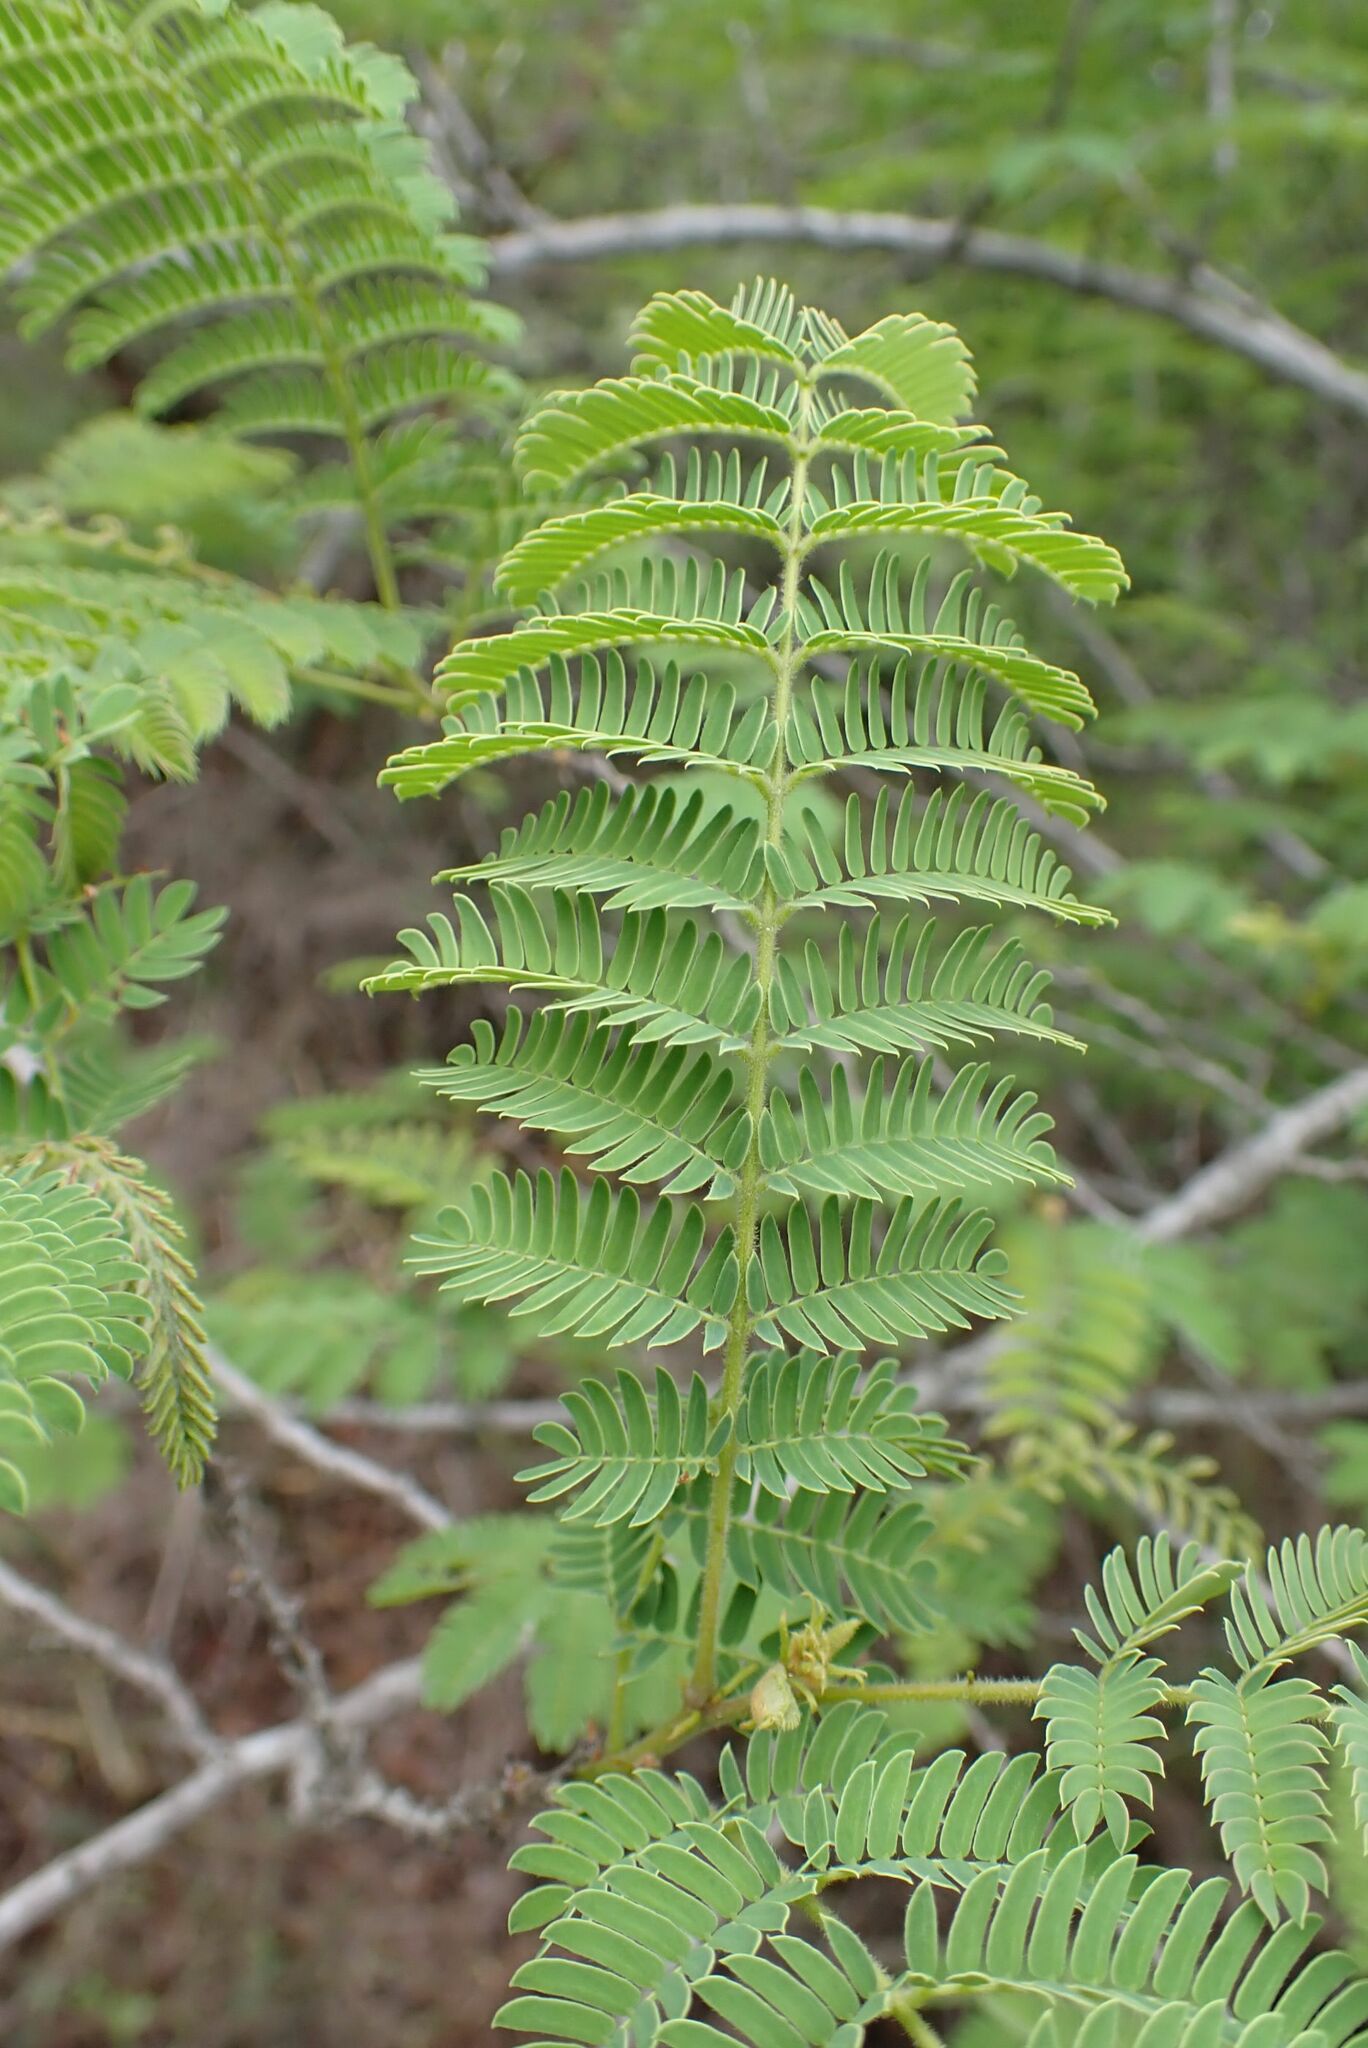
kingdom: Plantae
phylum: Tracheophyta
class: Magnoliopsida
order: Fabales
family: Fabaceae
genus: Albizia
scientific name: Albizia harveyi
